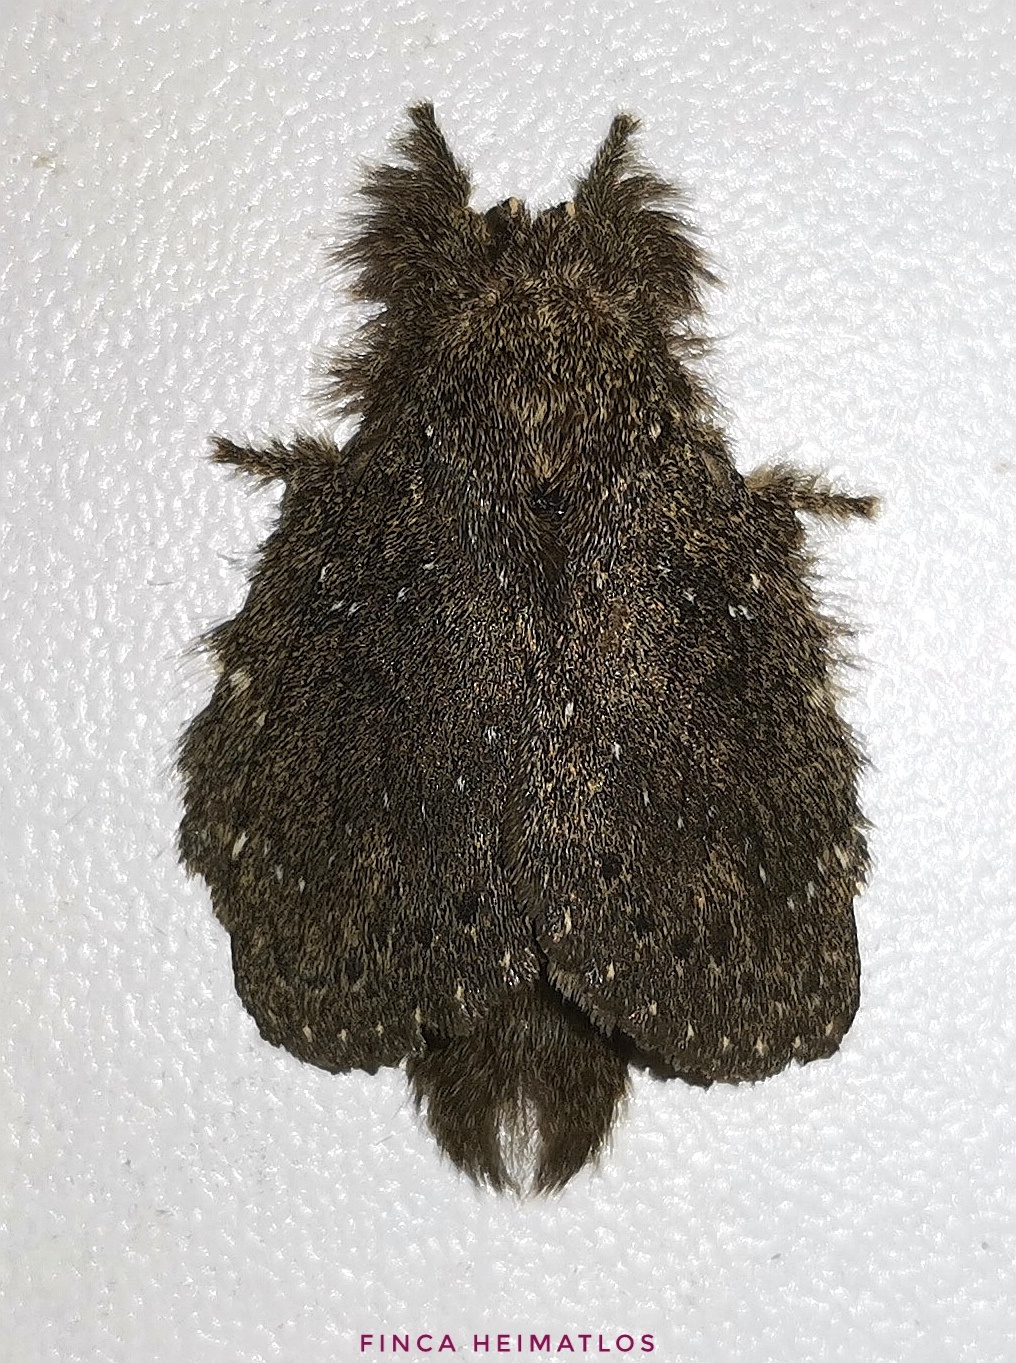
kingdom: Animalia
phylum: Arthropoda
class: Insecta
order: Lepidoptera
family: Lasiocampidae
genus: Euglyphis
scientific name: Euglyphis melancholica
